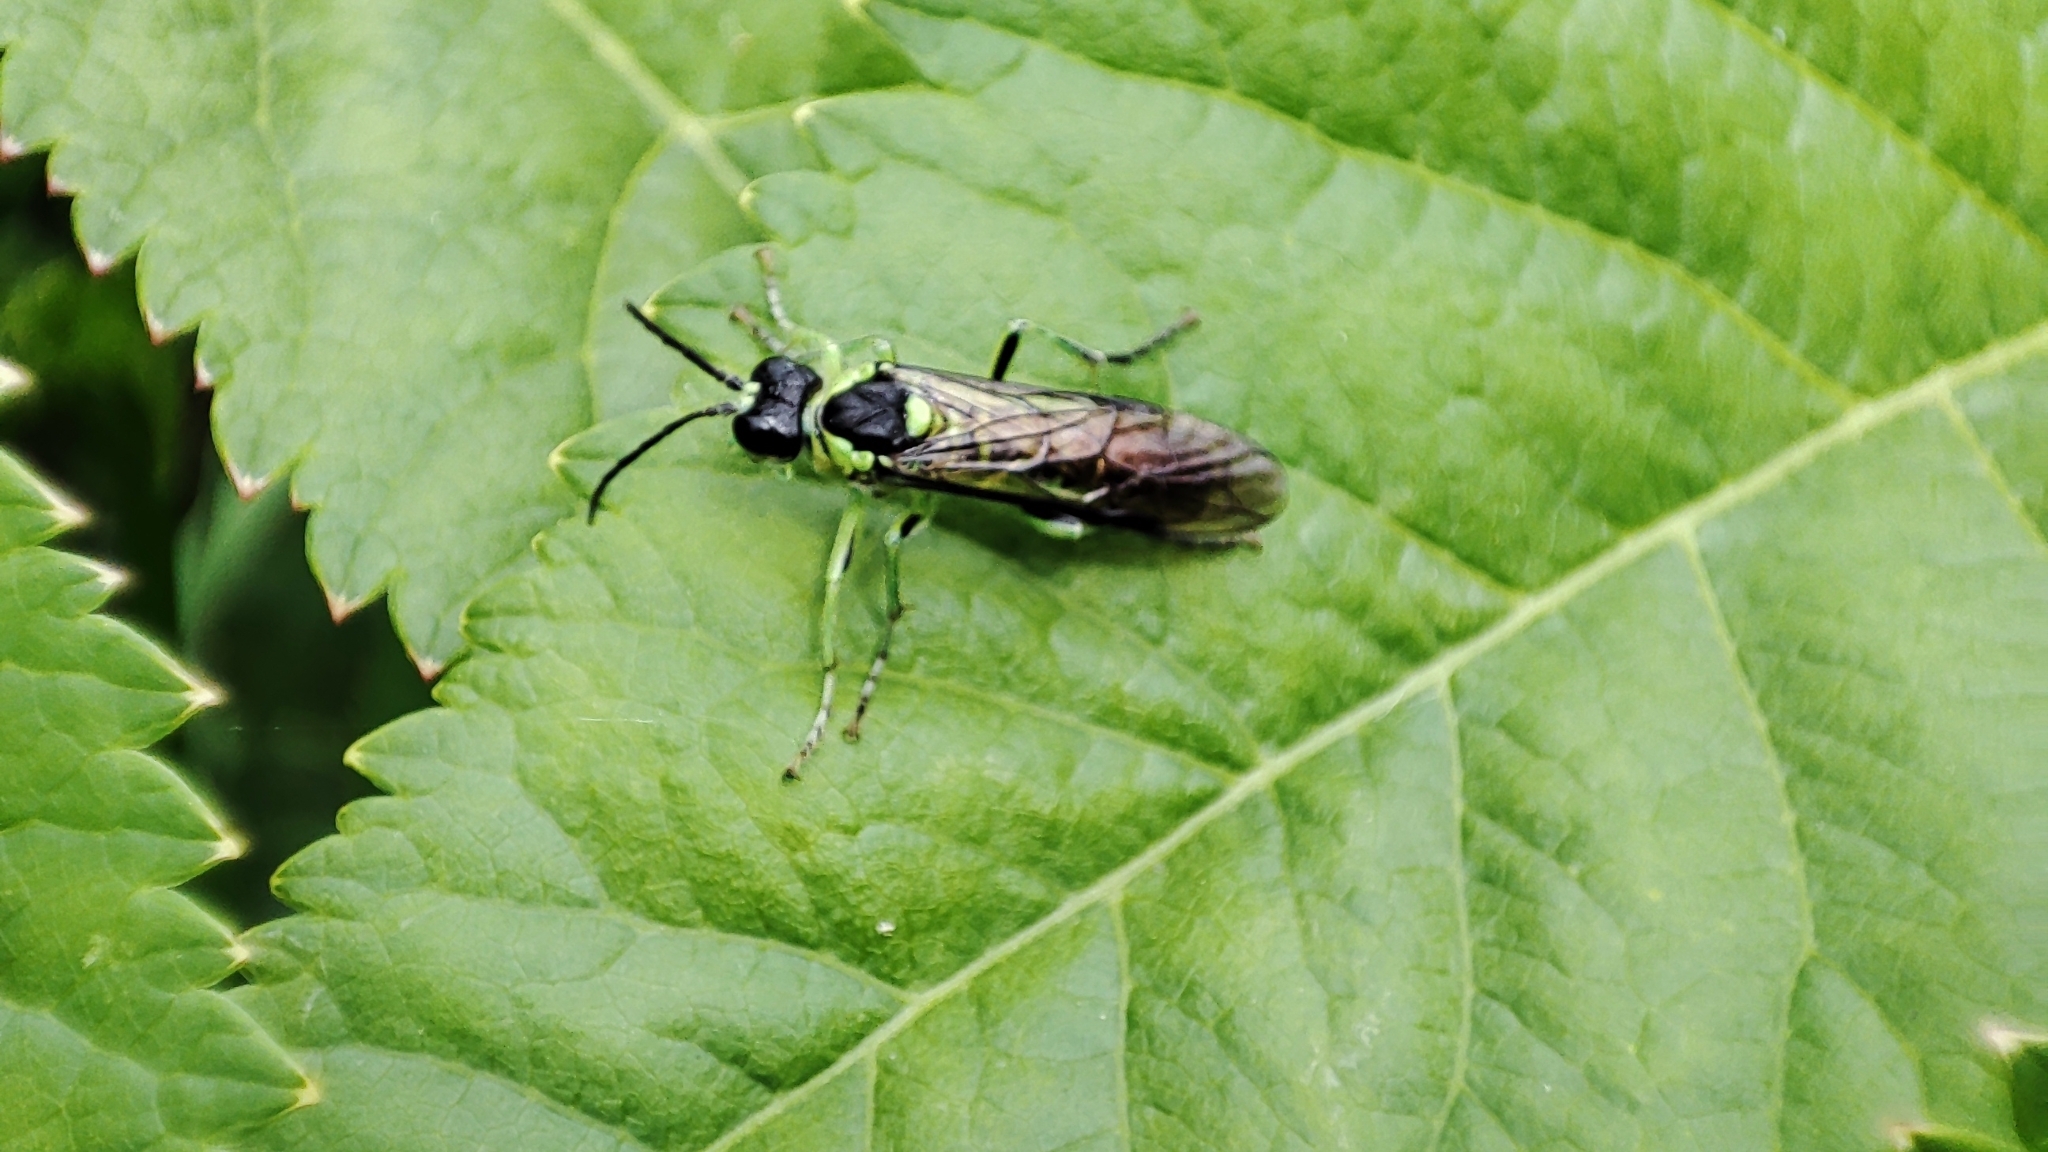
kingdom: Animalia
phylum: Arthropoda
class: Insecta
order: Hymenoptera
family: Tenthredinidae
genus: Tenthredo
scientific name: Tenthredo mesomela
